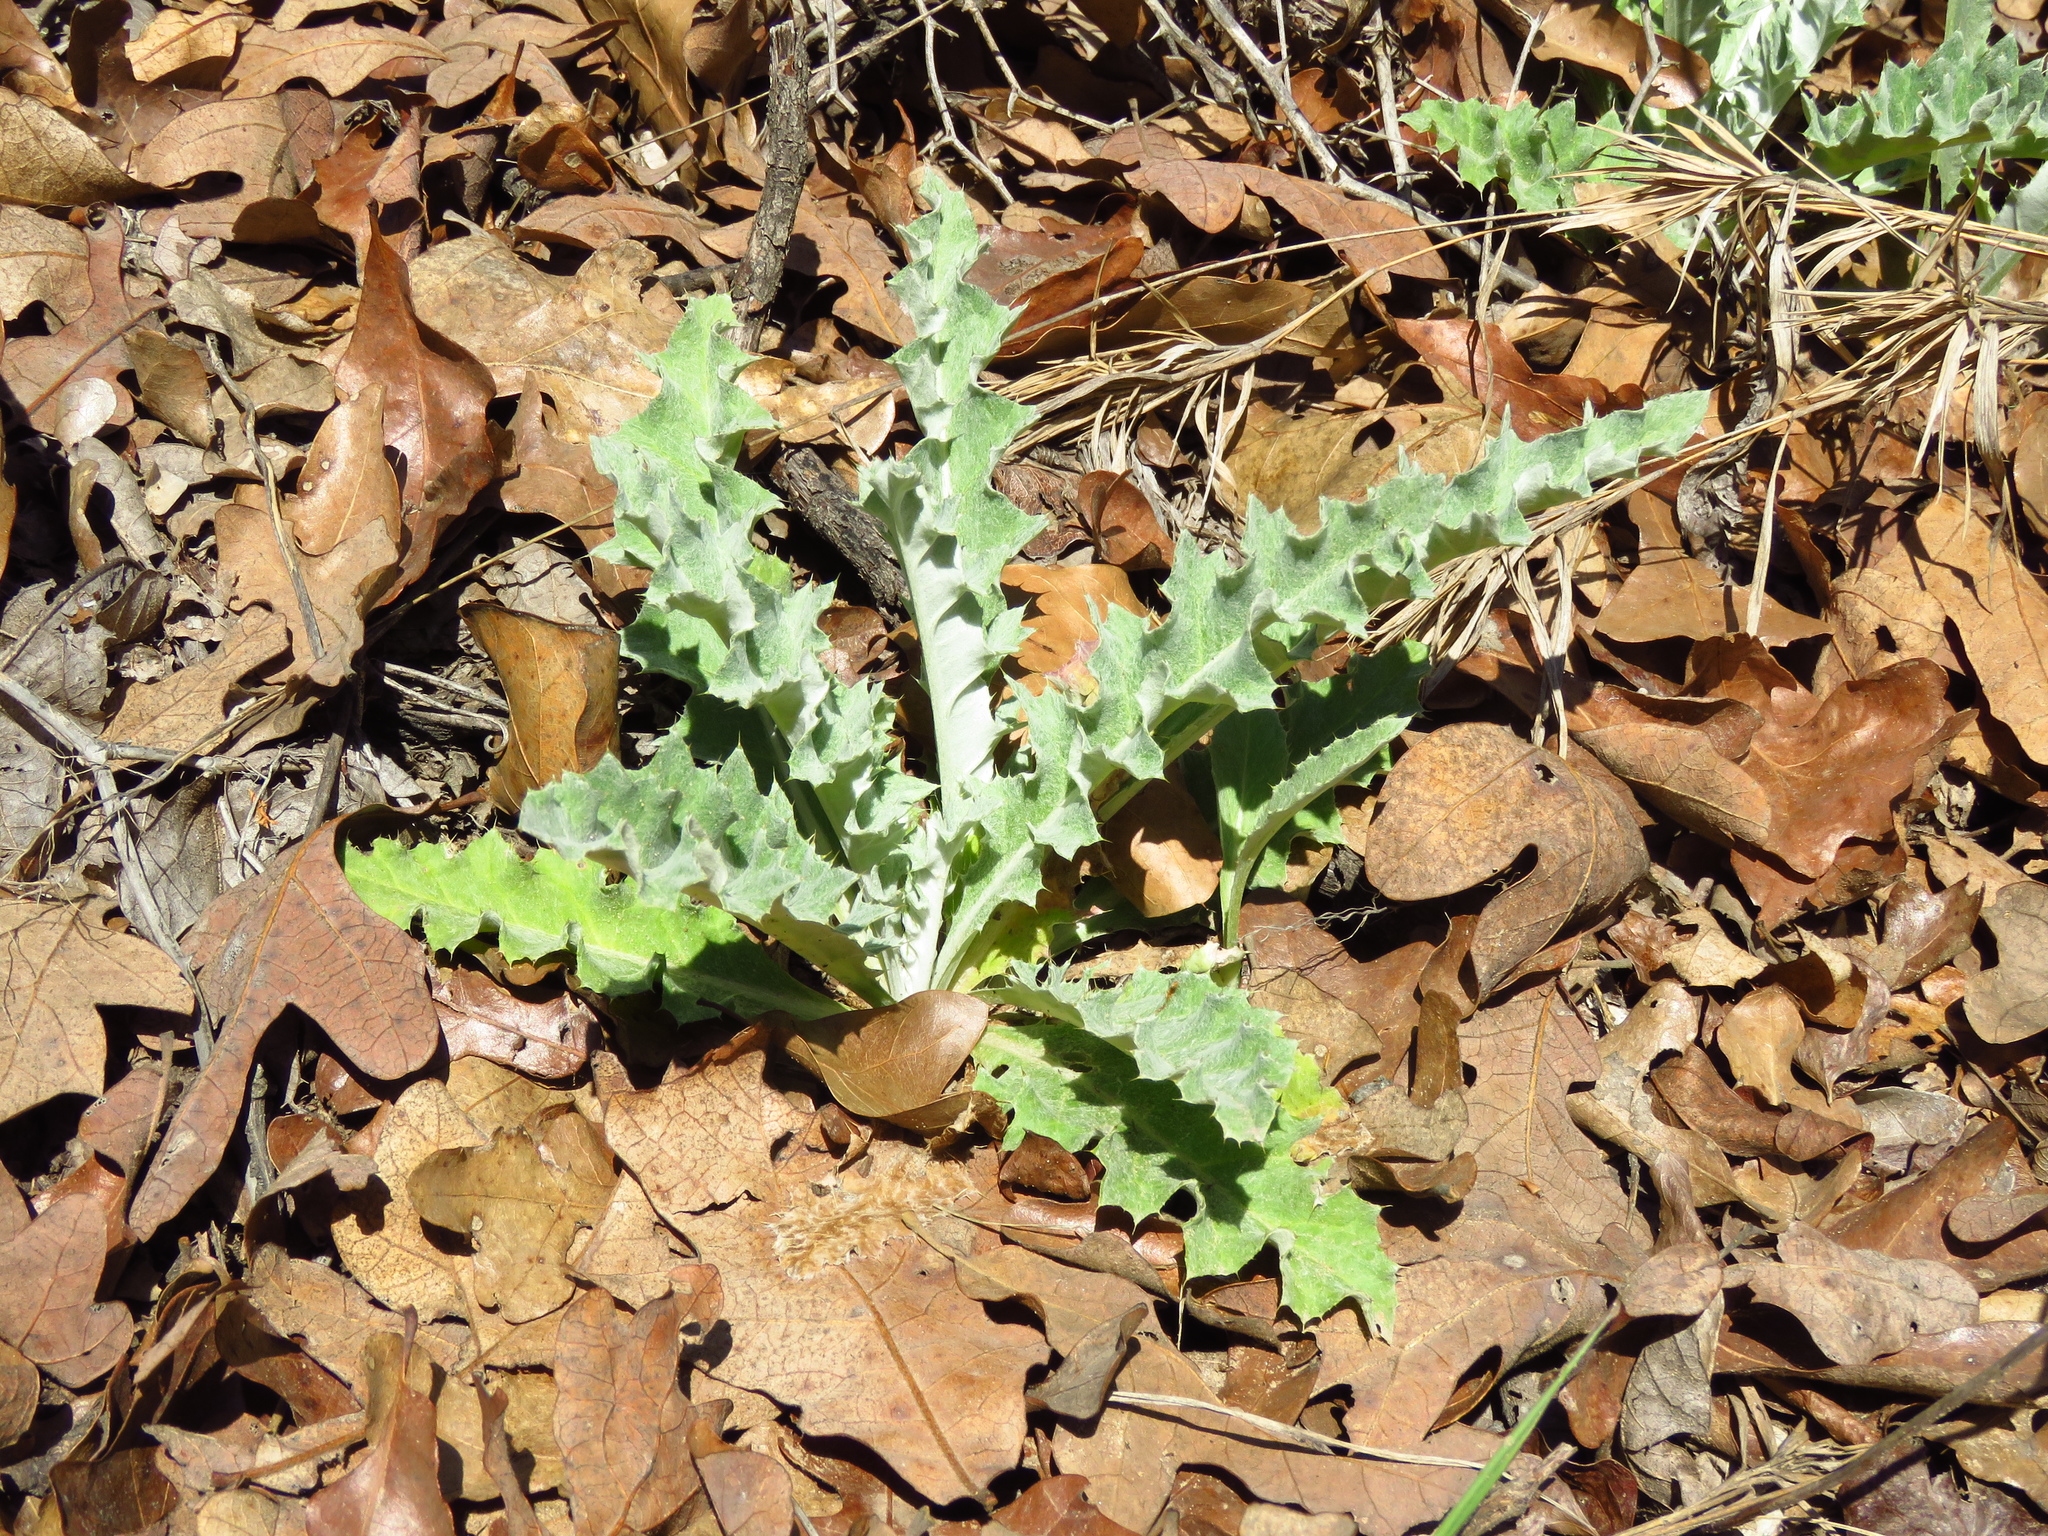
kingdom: Plantae
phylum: Tracheophyta
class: Magnoliopsida
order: Asterales
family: Asteraceae
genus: Cirsium
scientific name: Cirsium undulatum
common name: Pasture thistle
